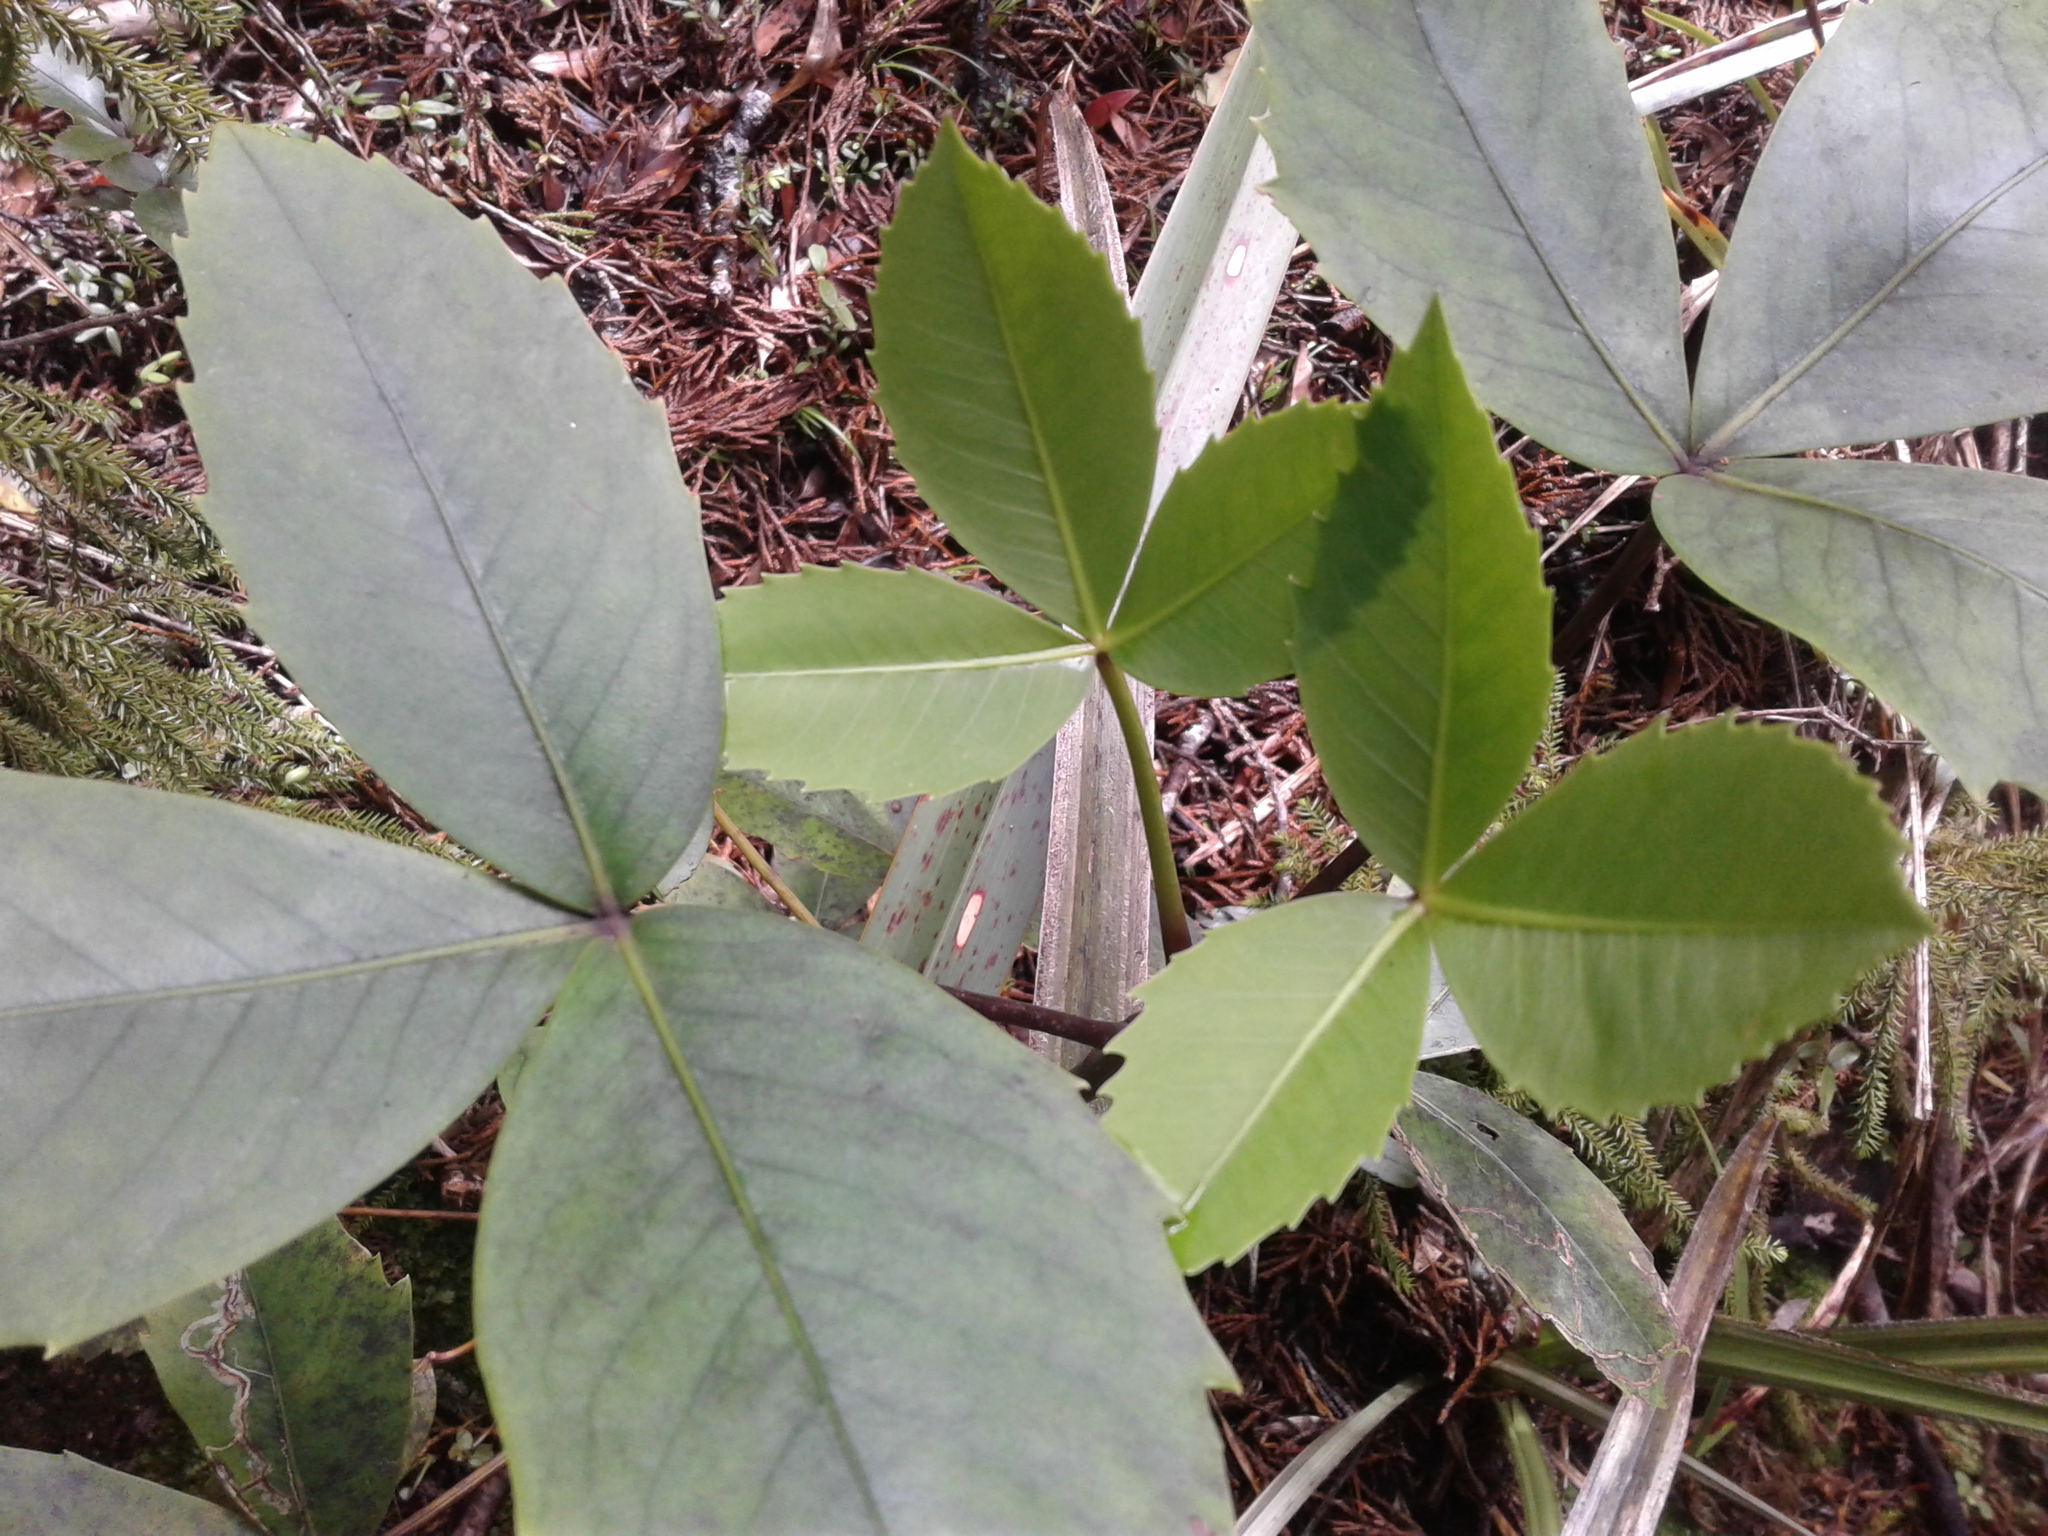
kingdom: Plantae
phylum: Tracheophyta
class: Magnoliopsida
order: Apiales
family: Araliaceae
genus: Neopanax
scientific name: Neopanax colensoi
